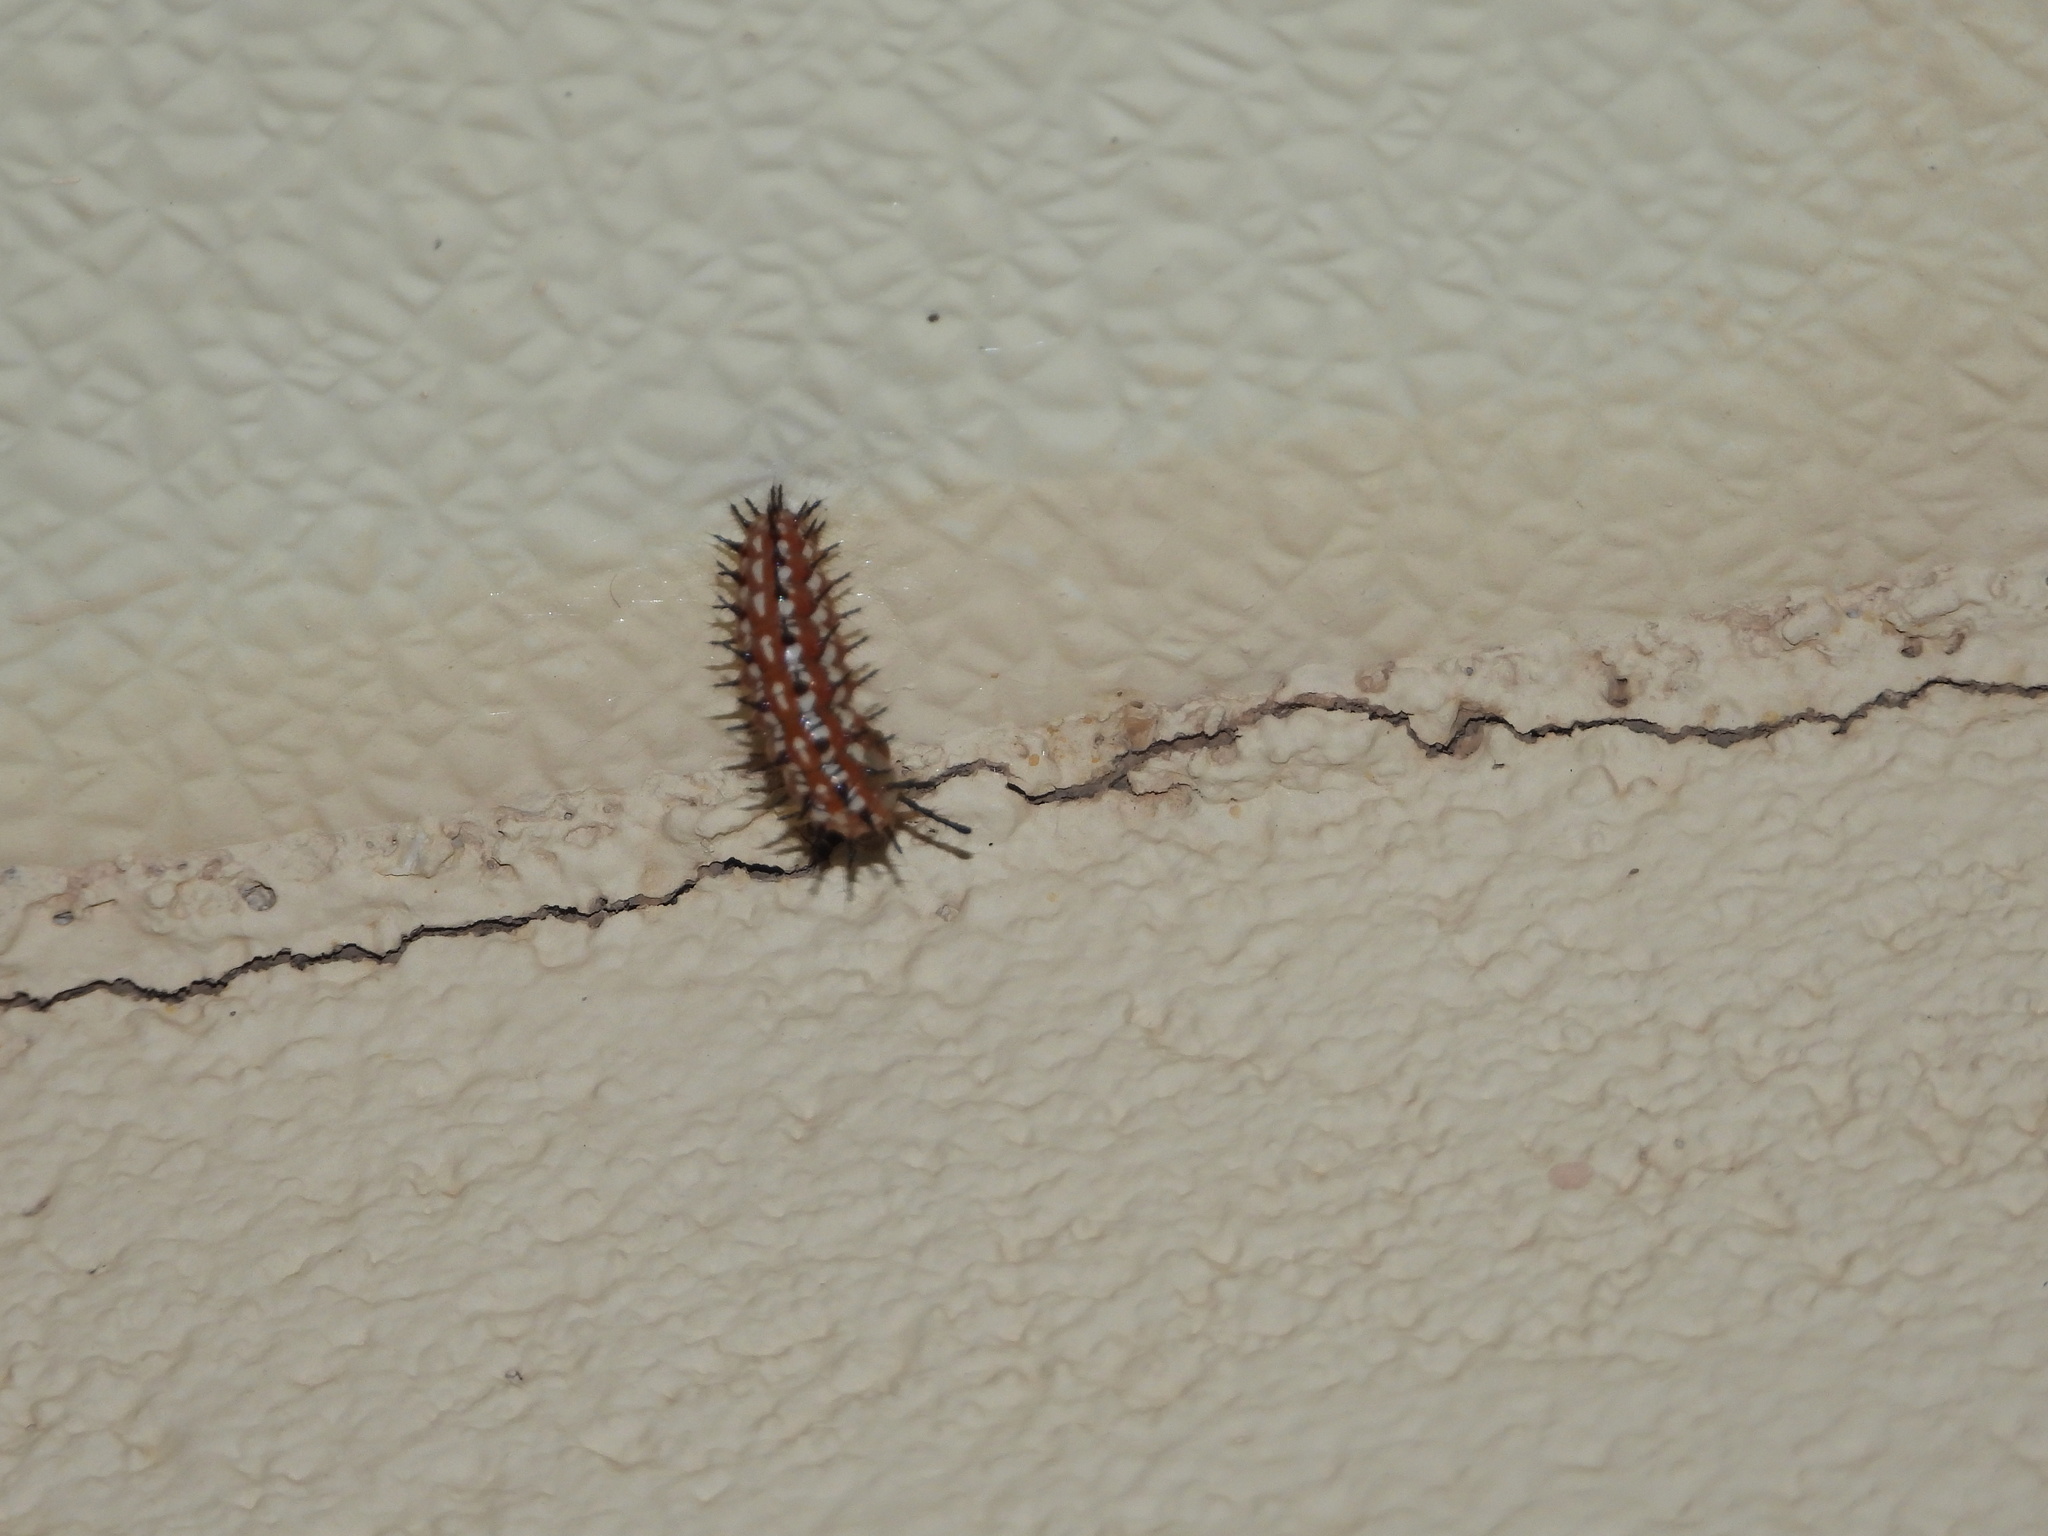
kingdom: Animalia
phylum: Arthropoda
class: Insecta
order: Lepidoptera
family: Nymphalidae
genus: Euptoieta
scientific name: Euptoieta claudia
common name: Variegated fritillary
